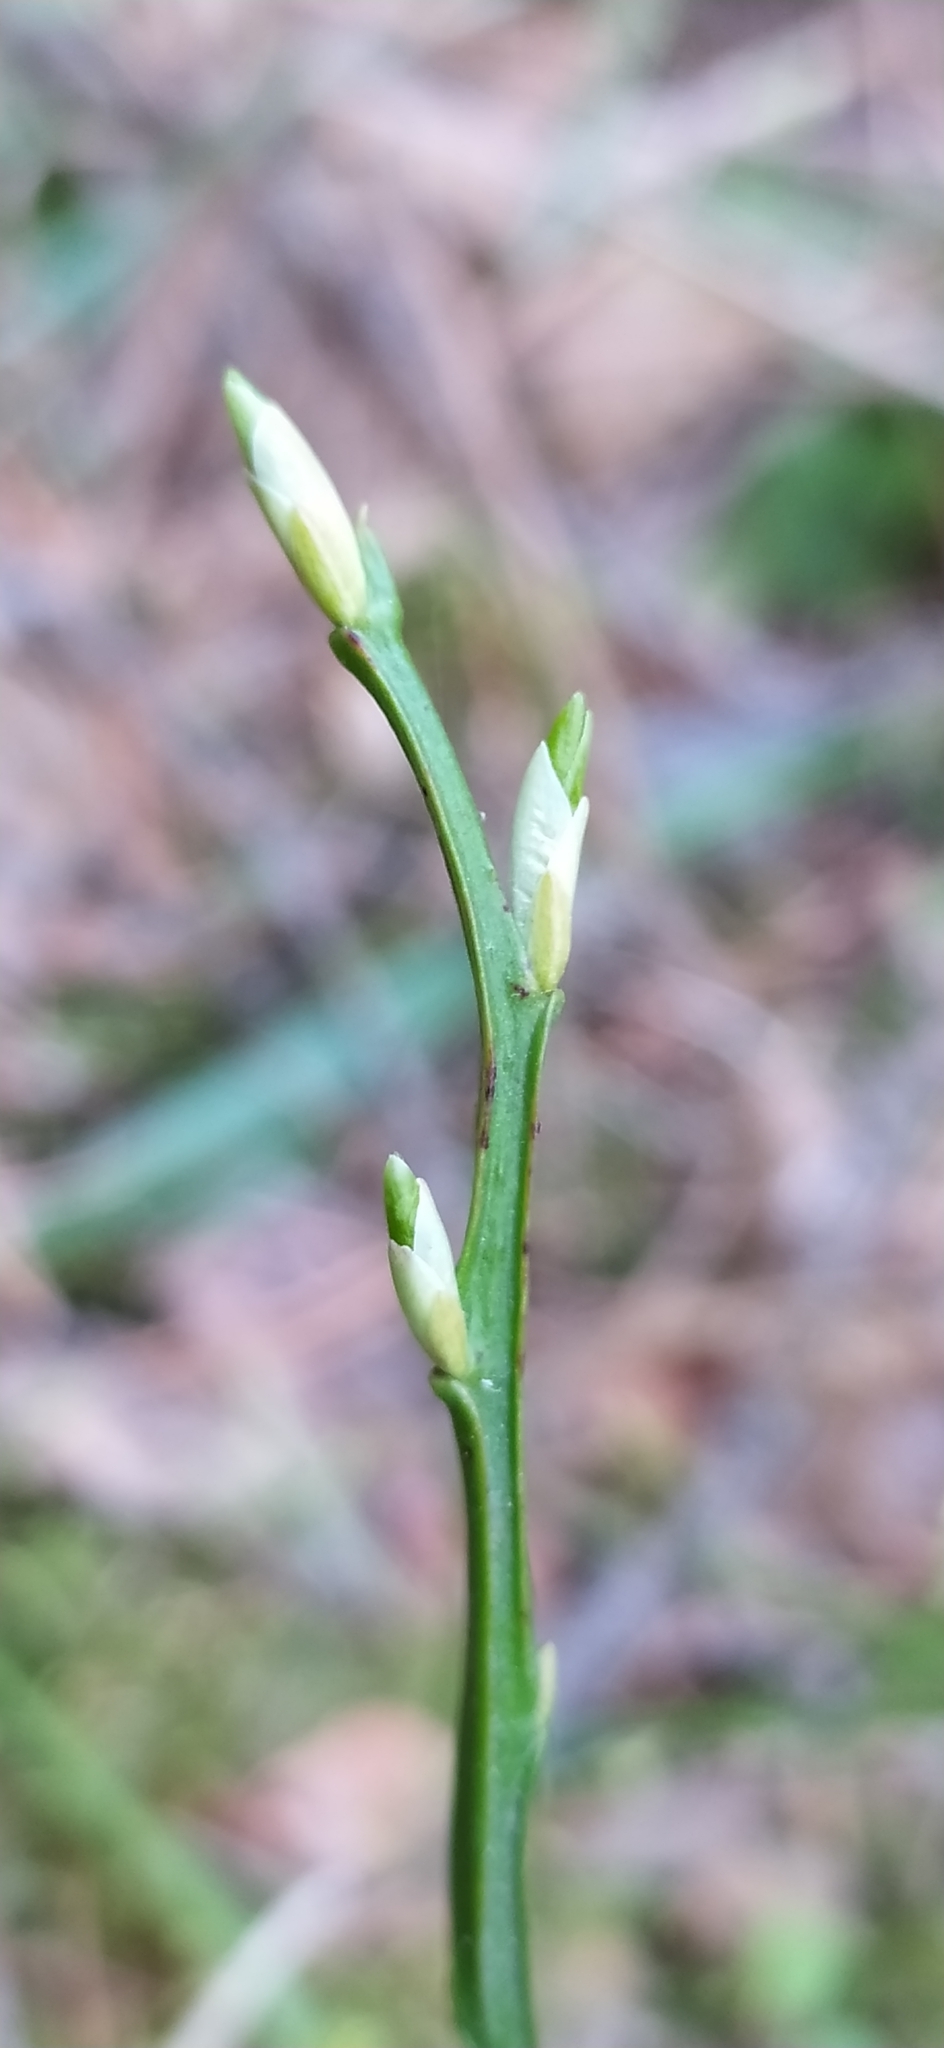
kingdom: Plantae
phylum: Tracheophyta
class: Magnoliopsida
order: Ericales
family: Ericaceae
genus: Vaccinium
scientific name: Vaccinium myrtillus
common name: Bilberry
